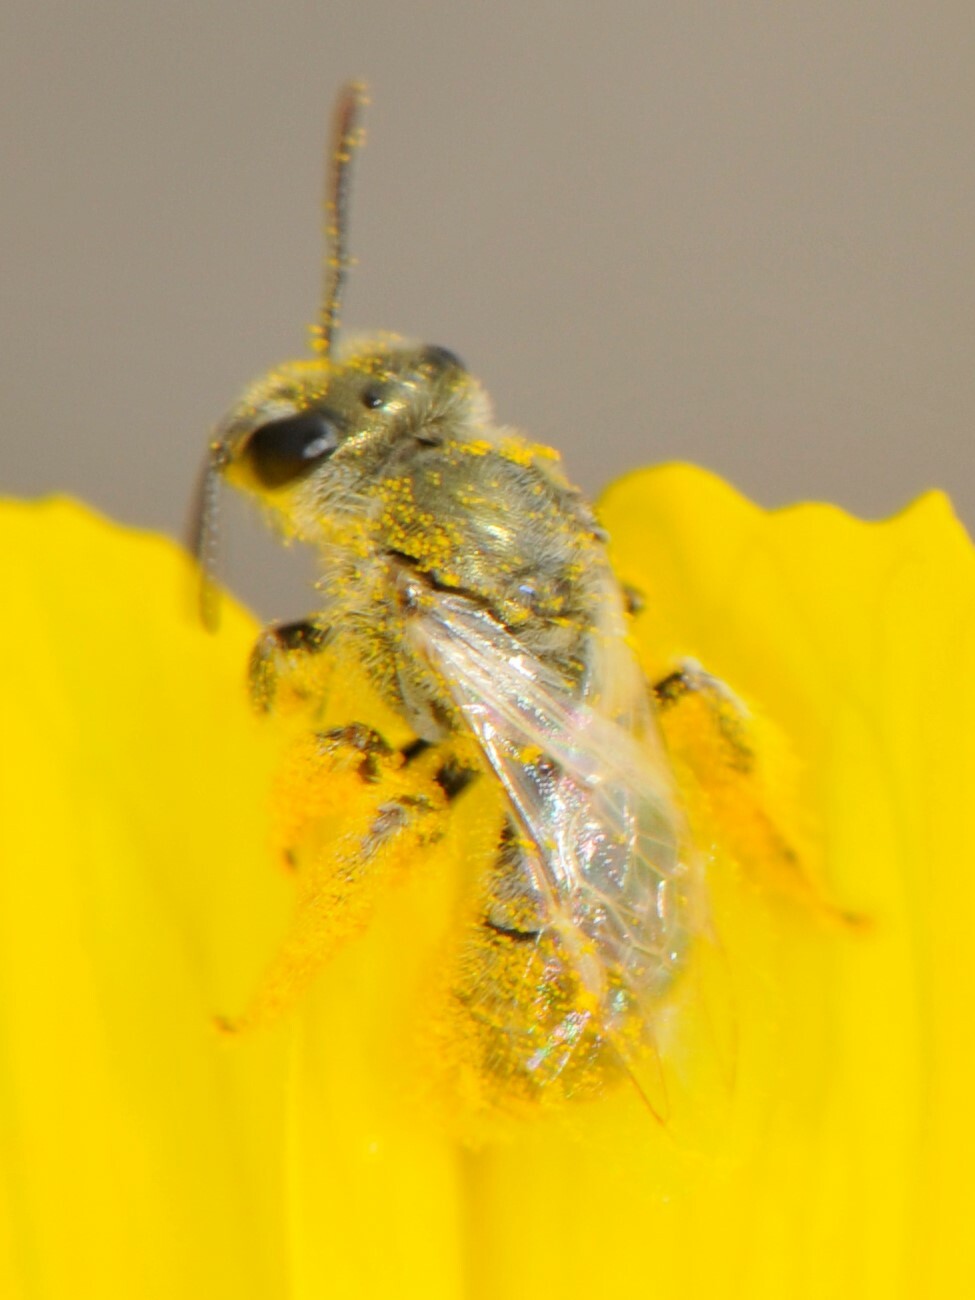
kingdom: Animalia
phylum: Arthropoda
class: Insecta
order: Hymenoptera
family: Halictidae
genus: Dialictus
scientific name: Dialictus
